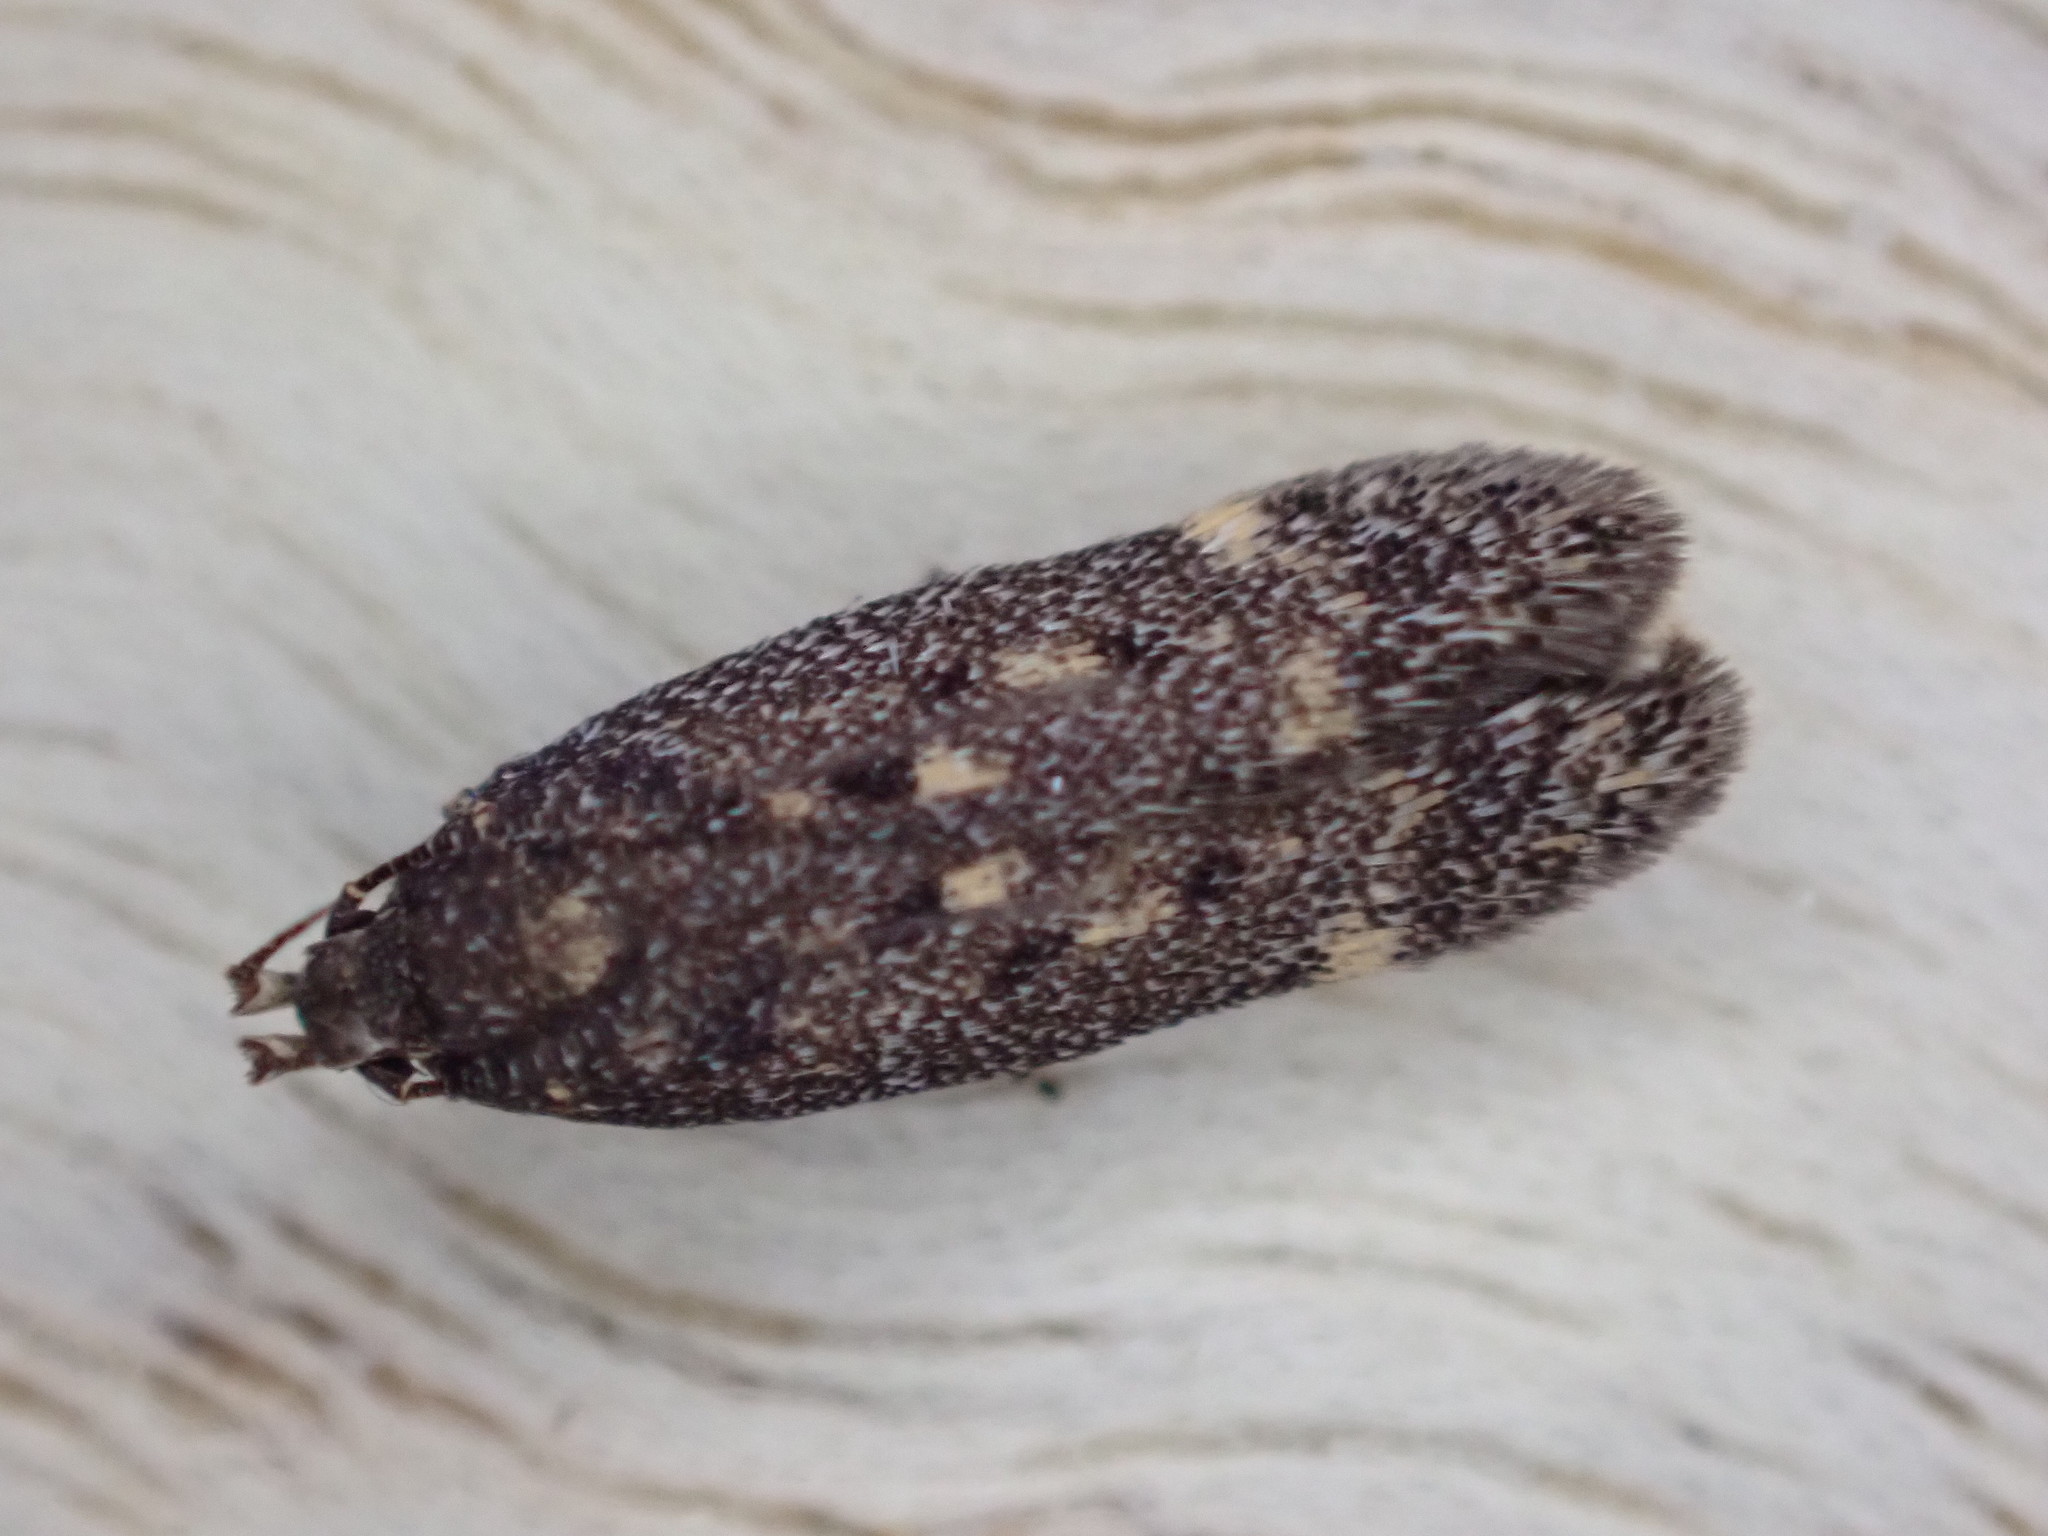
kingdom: Animalia
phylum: Arthropoda
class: Insecta
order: Lepidoptera
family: Gelechiidae
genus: Bryotropha
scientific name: Bryotropha affinis
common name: Dark groundling
